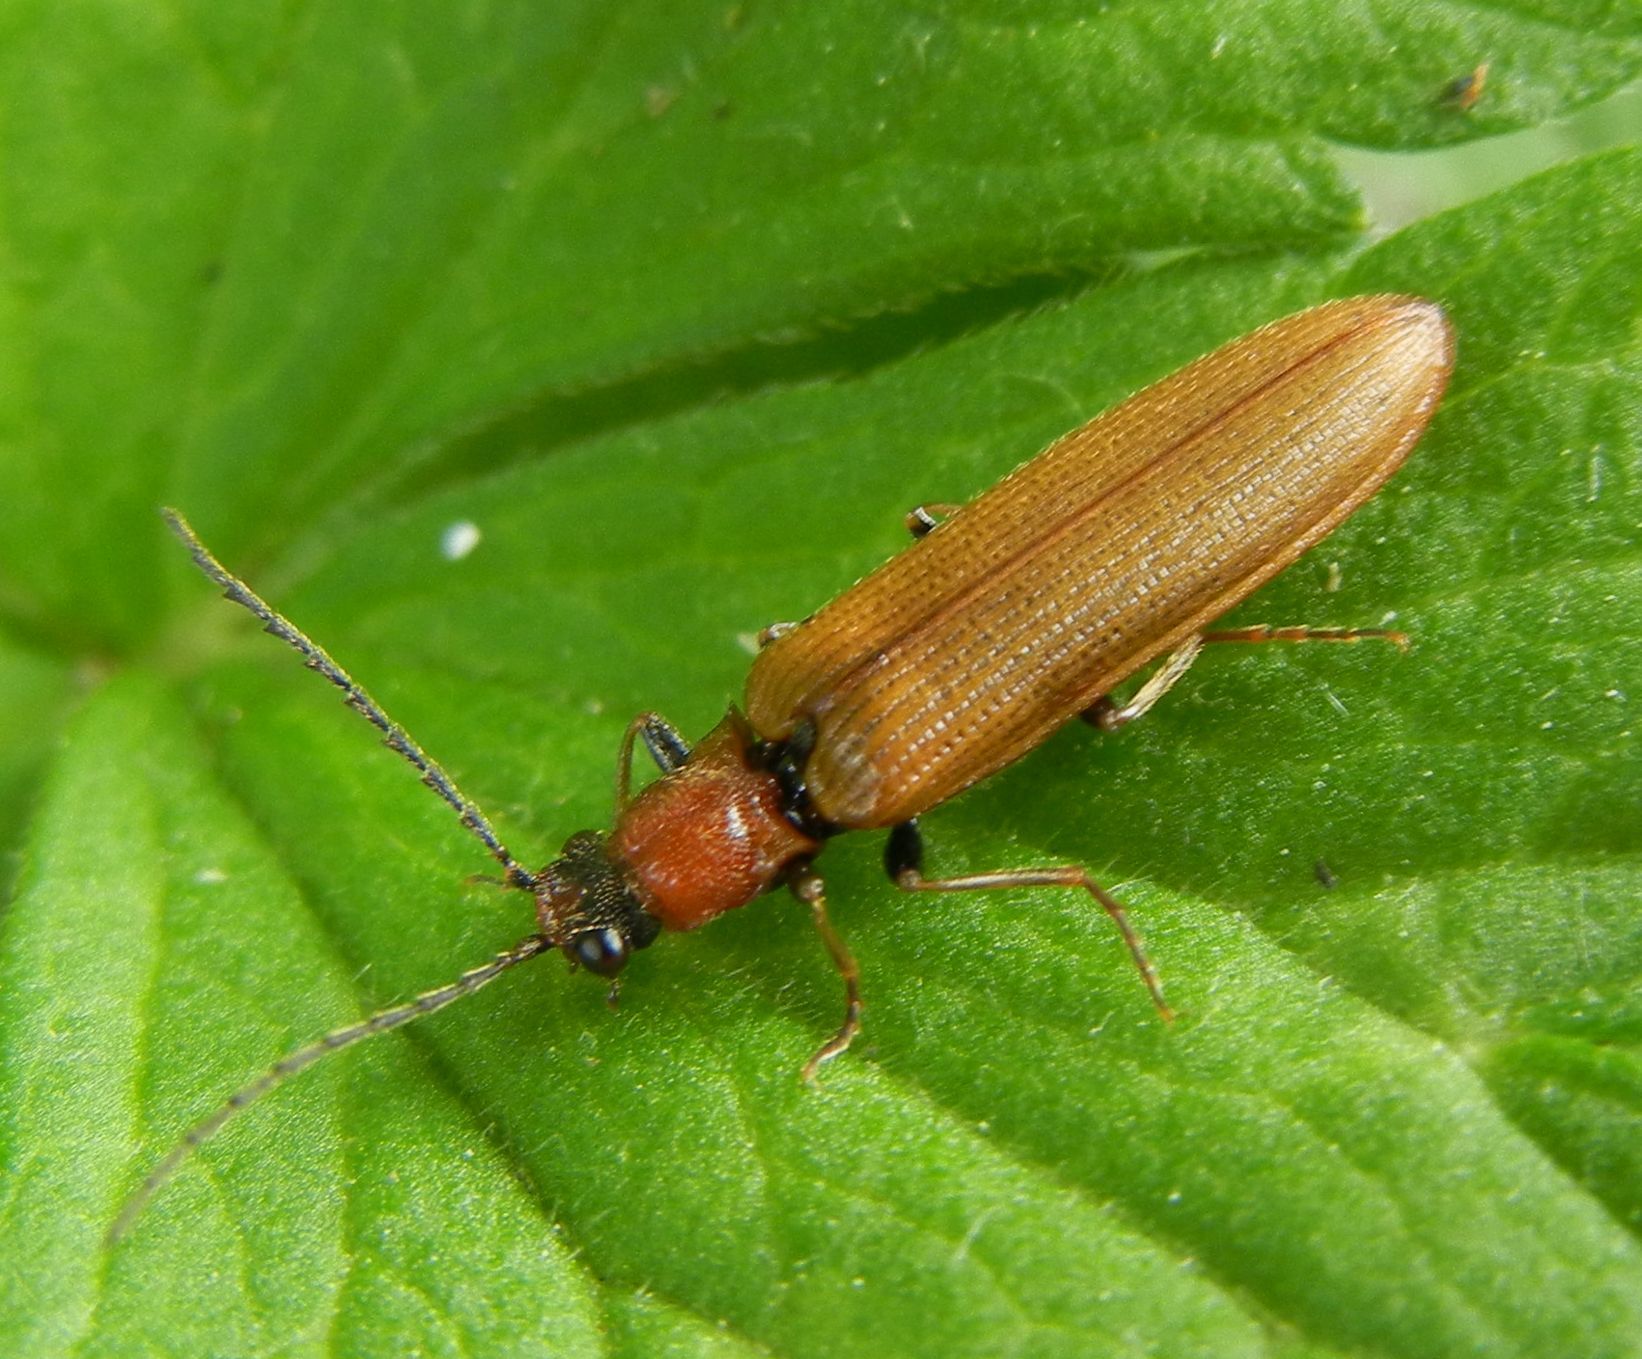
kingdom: Animalia
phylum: Arthropoda
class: Insecta
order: Coleoptera
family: Elateridae
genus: Denticollis
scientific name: Denticollis linearis
